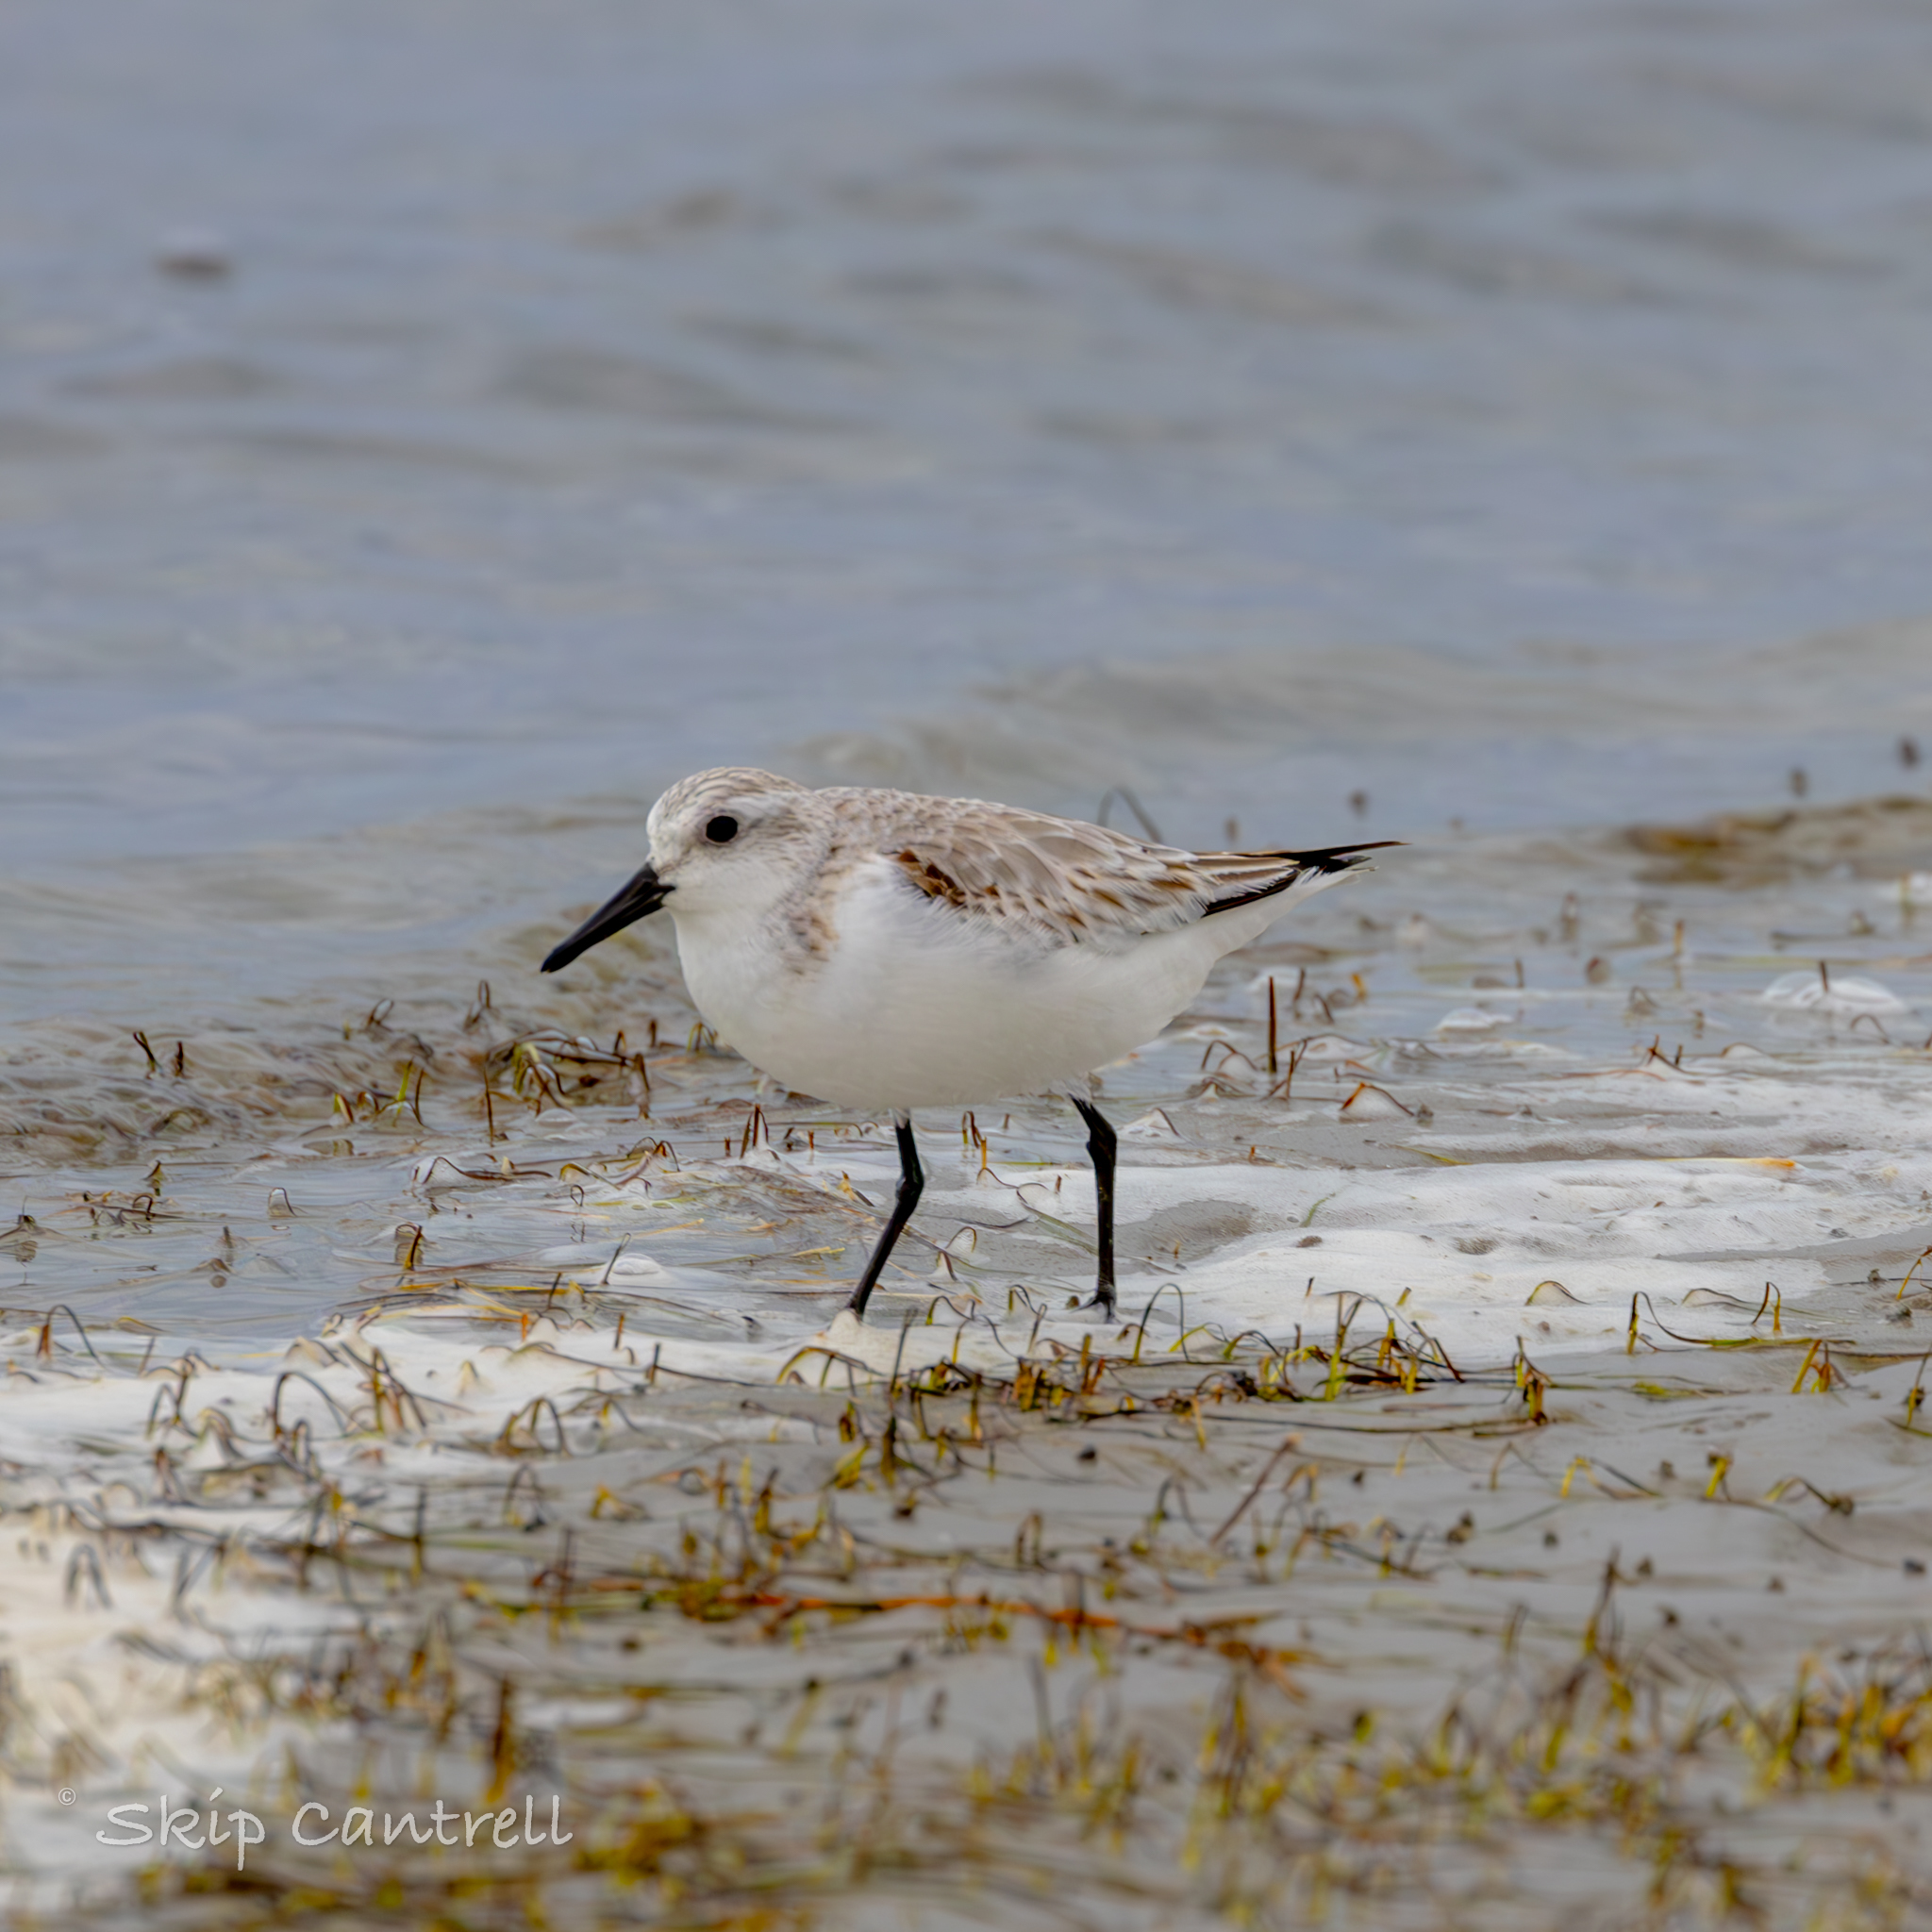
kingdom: Animalia
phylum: Chordata
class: Aves
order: Charadriiformes
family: Scolopacidae
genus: Calidris
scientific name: Calidris alba
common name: Sanderling
